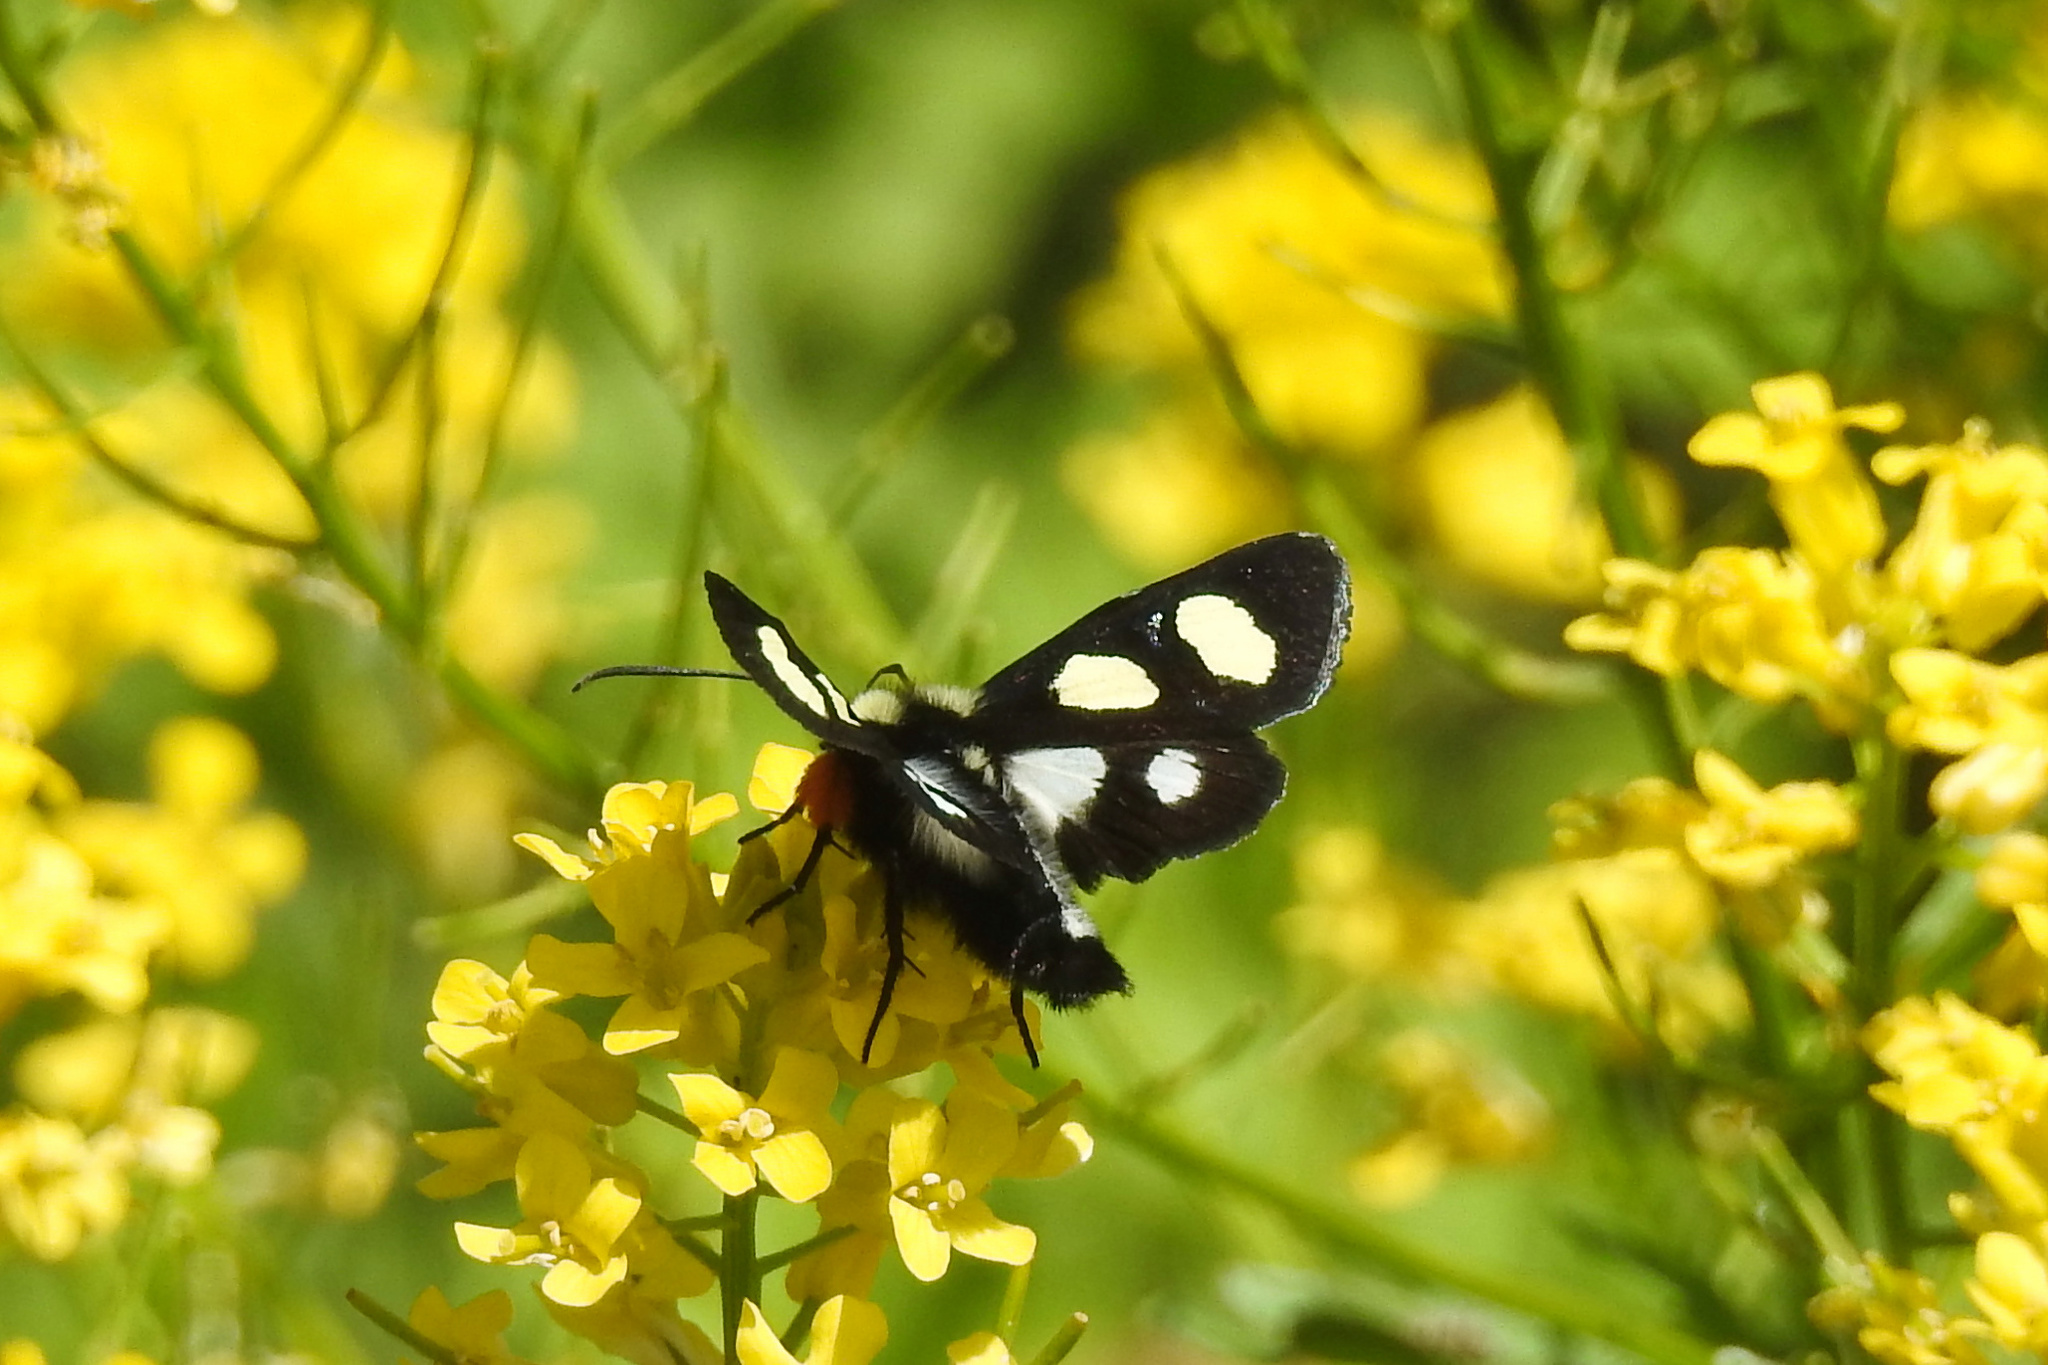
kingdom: Animalia
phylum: Arthropoda
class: Insecta
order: Lepidoptera
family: Noctuidae
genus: Alypia
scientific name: Alypia octomaculata
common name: Eight-spotted forester
